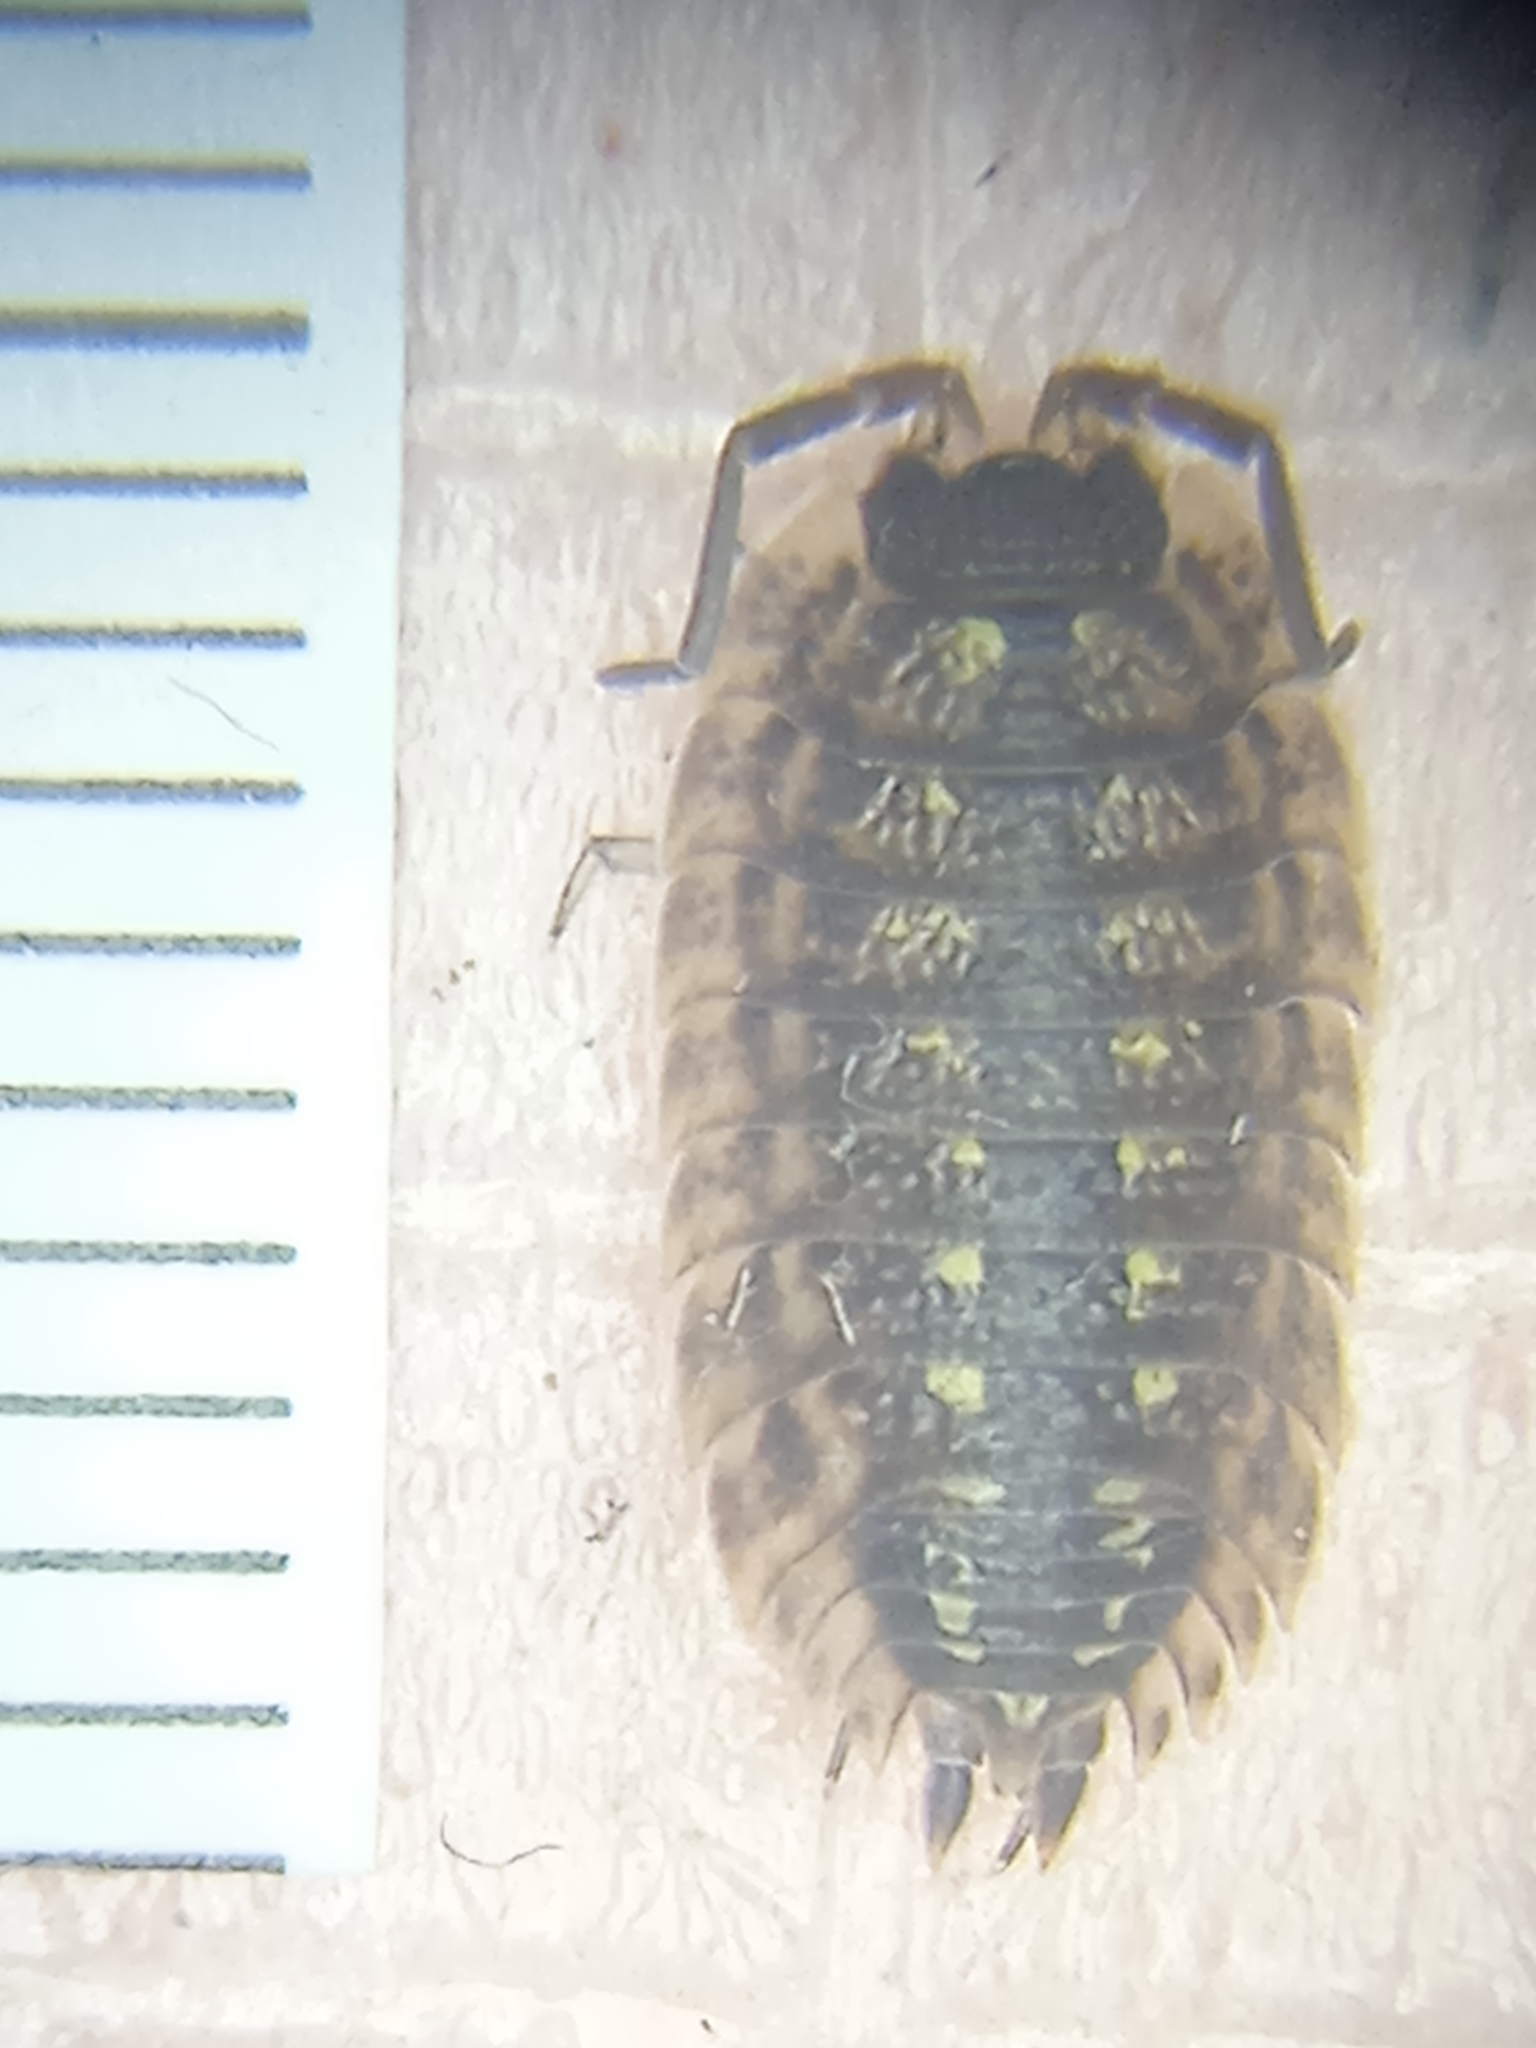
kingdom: Animalia
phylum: Arthropoda
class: Malacostraca
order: Isopoda
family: Porcellionidae
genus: Porcellio
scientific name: Porcellio spinicornis
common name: Painted woodlouse
